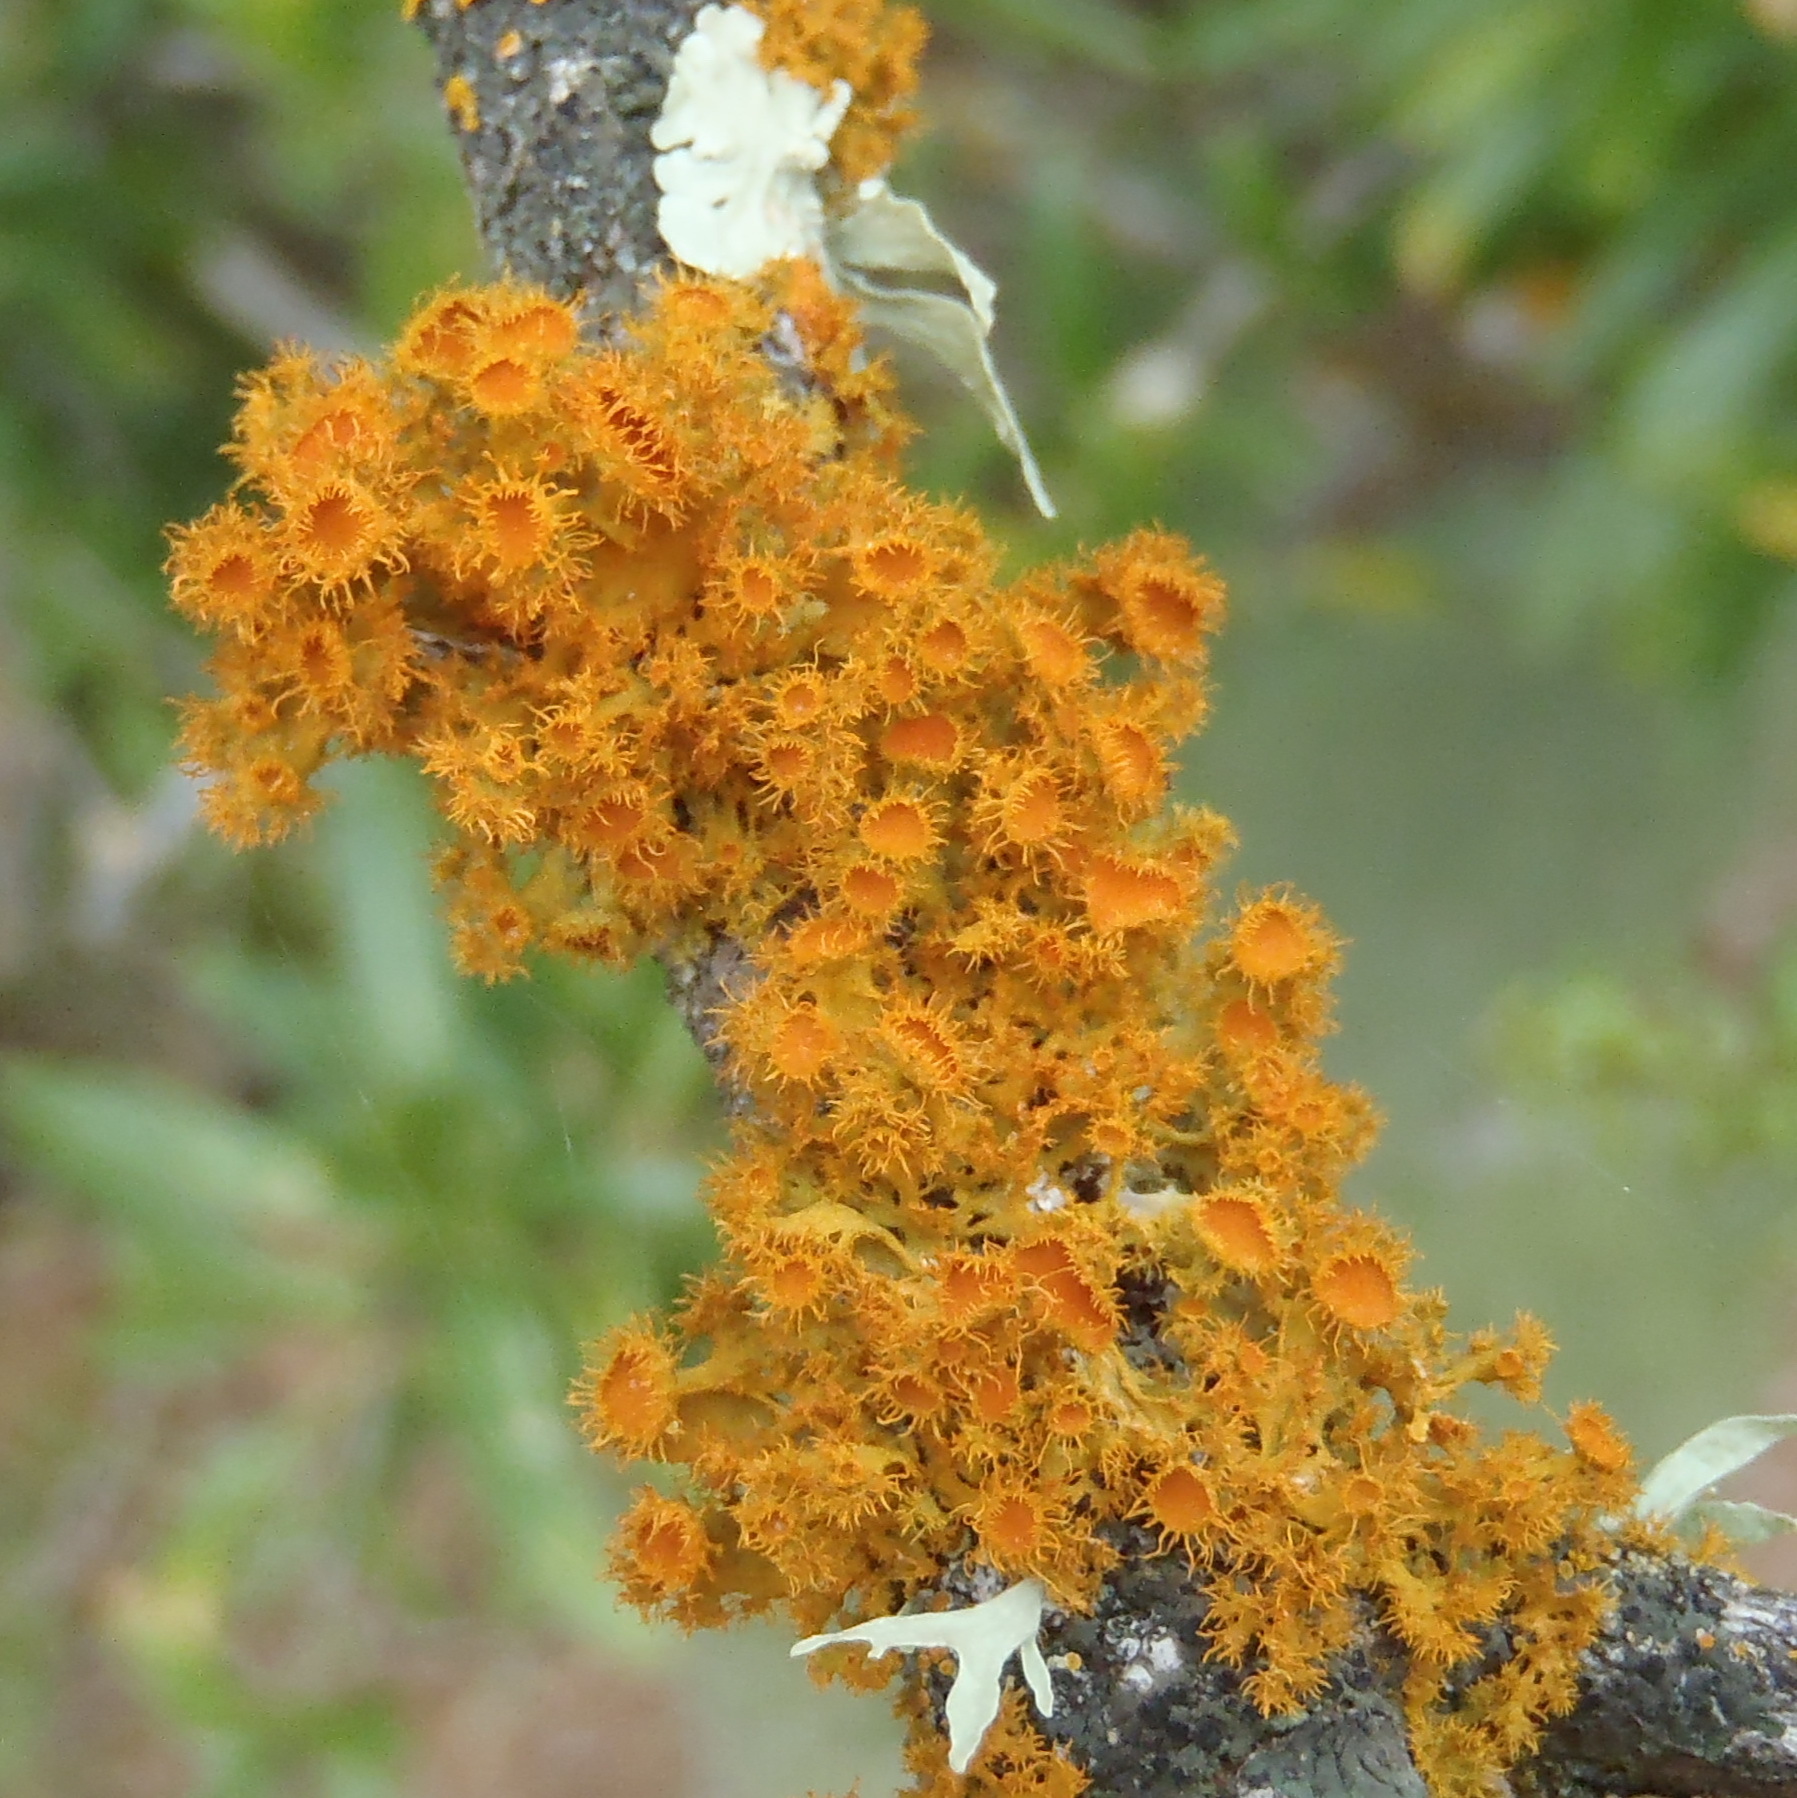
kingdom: Fungi
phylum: Ascomycota
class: Lecanoromycetes
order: Teloschistales
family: Teloschistaceae
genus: Niorma
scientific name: Niorma chrysophthalma
